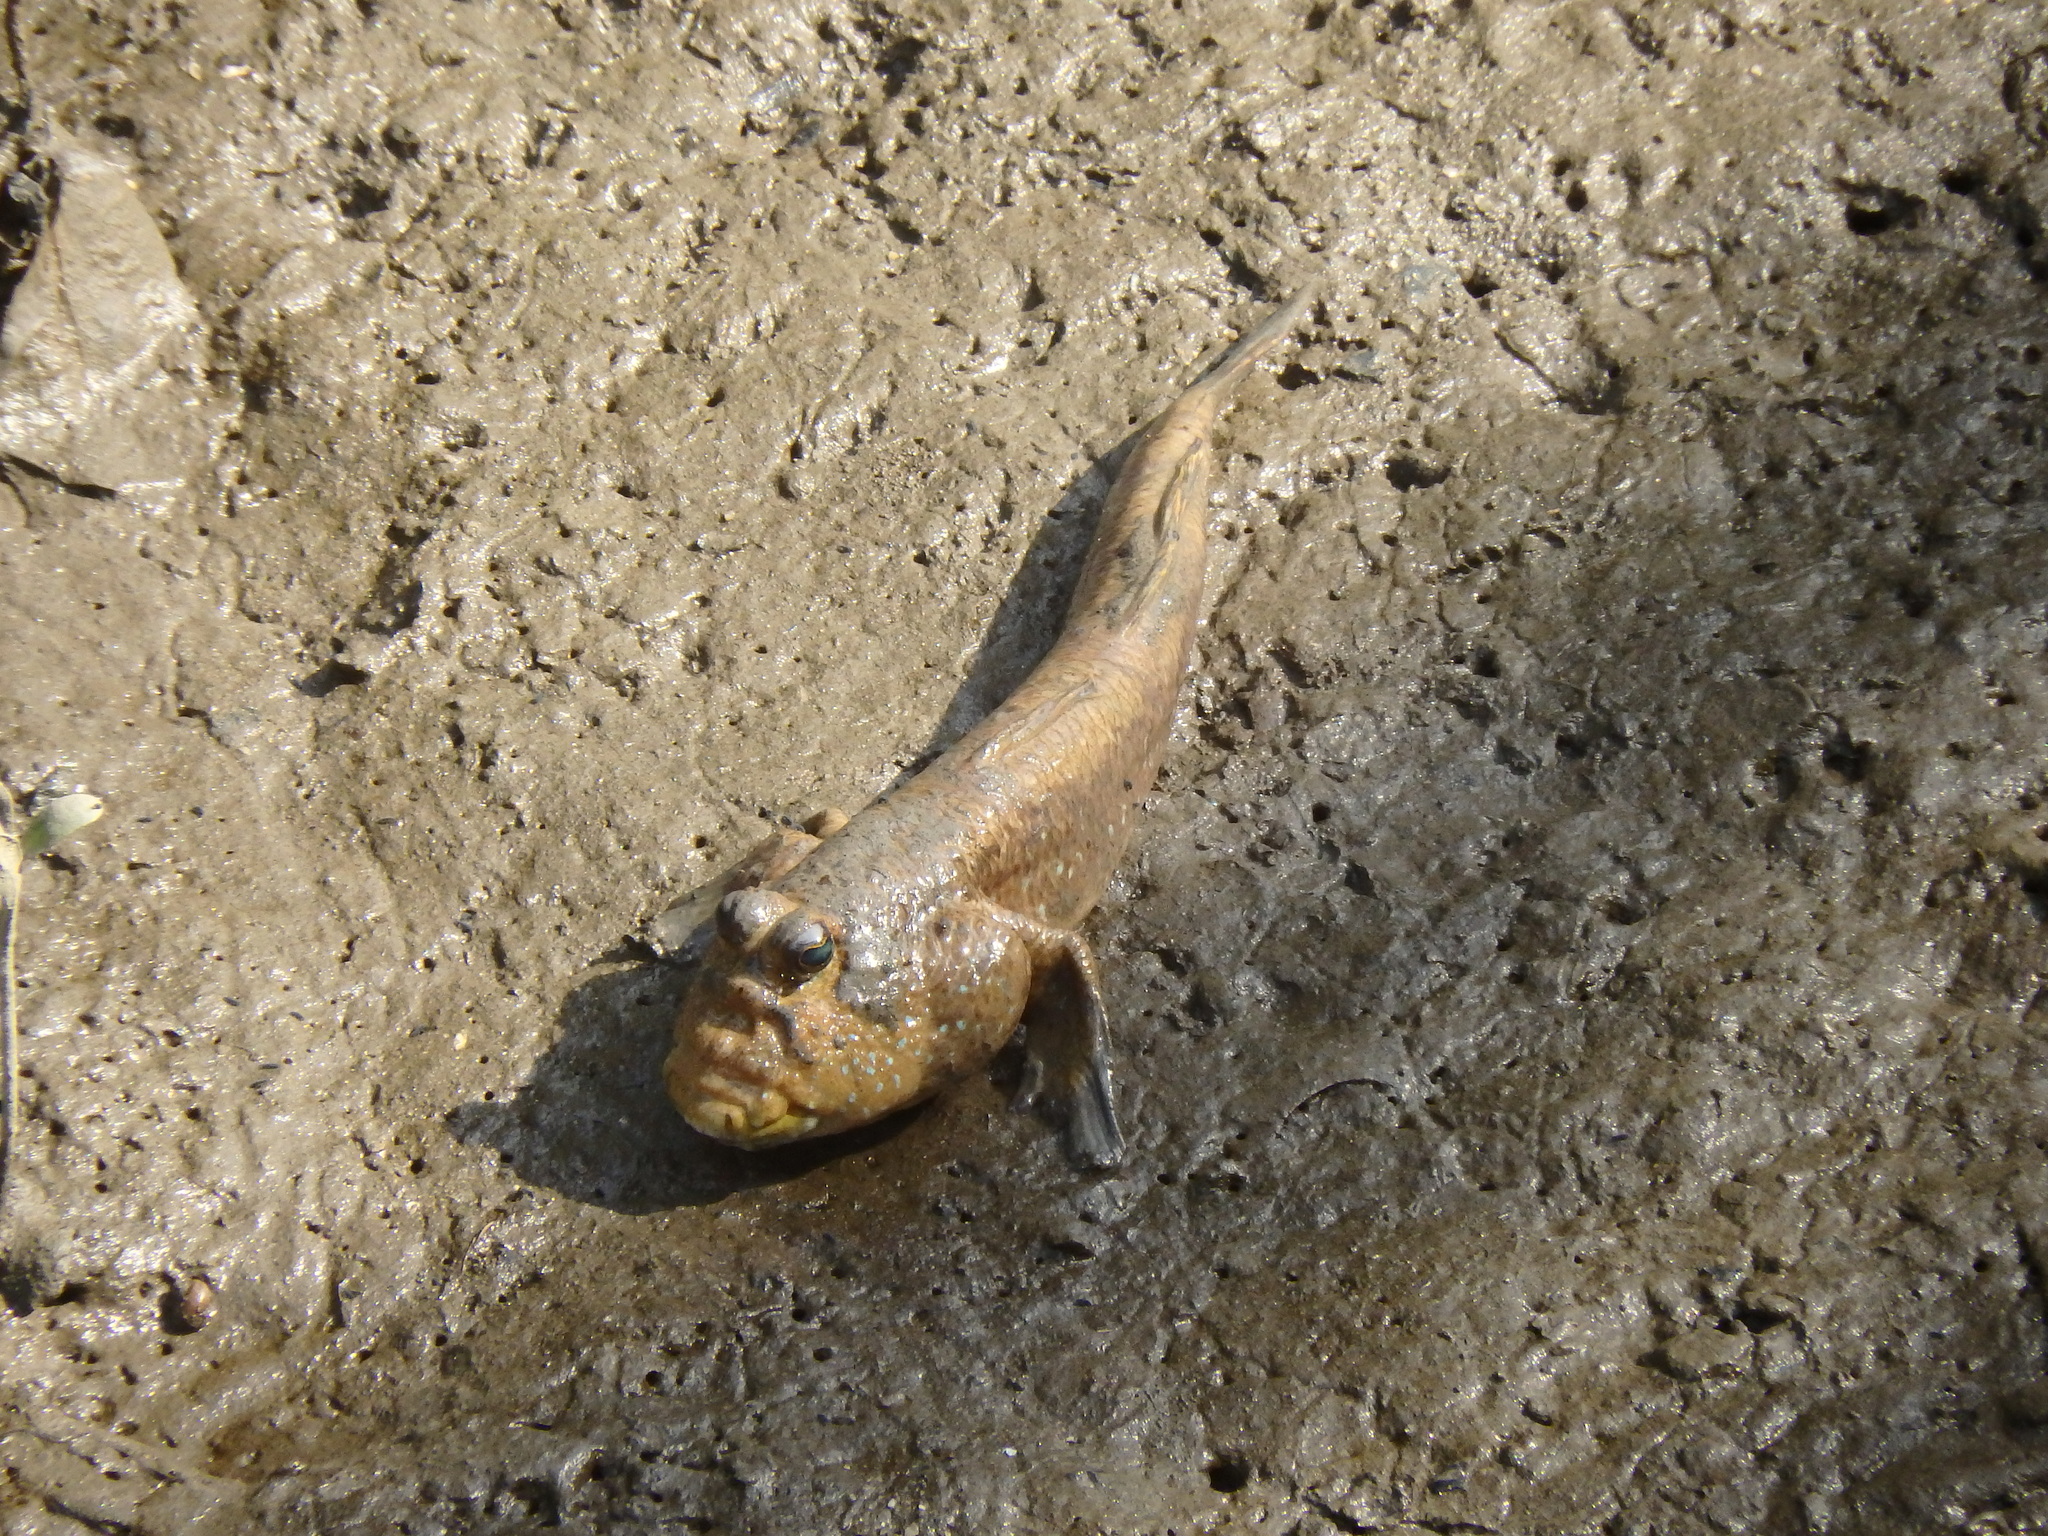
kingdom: Animalia
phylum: Chordata
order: Perciformes
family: Gobiidae
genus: Periophthalmodon
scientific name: Periophthalmodon schlosseri
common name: Giant mudskipper
